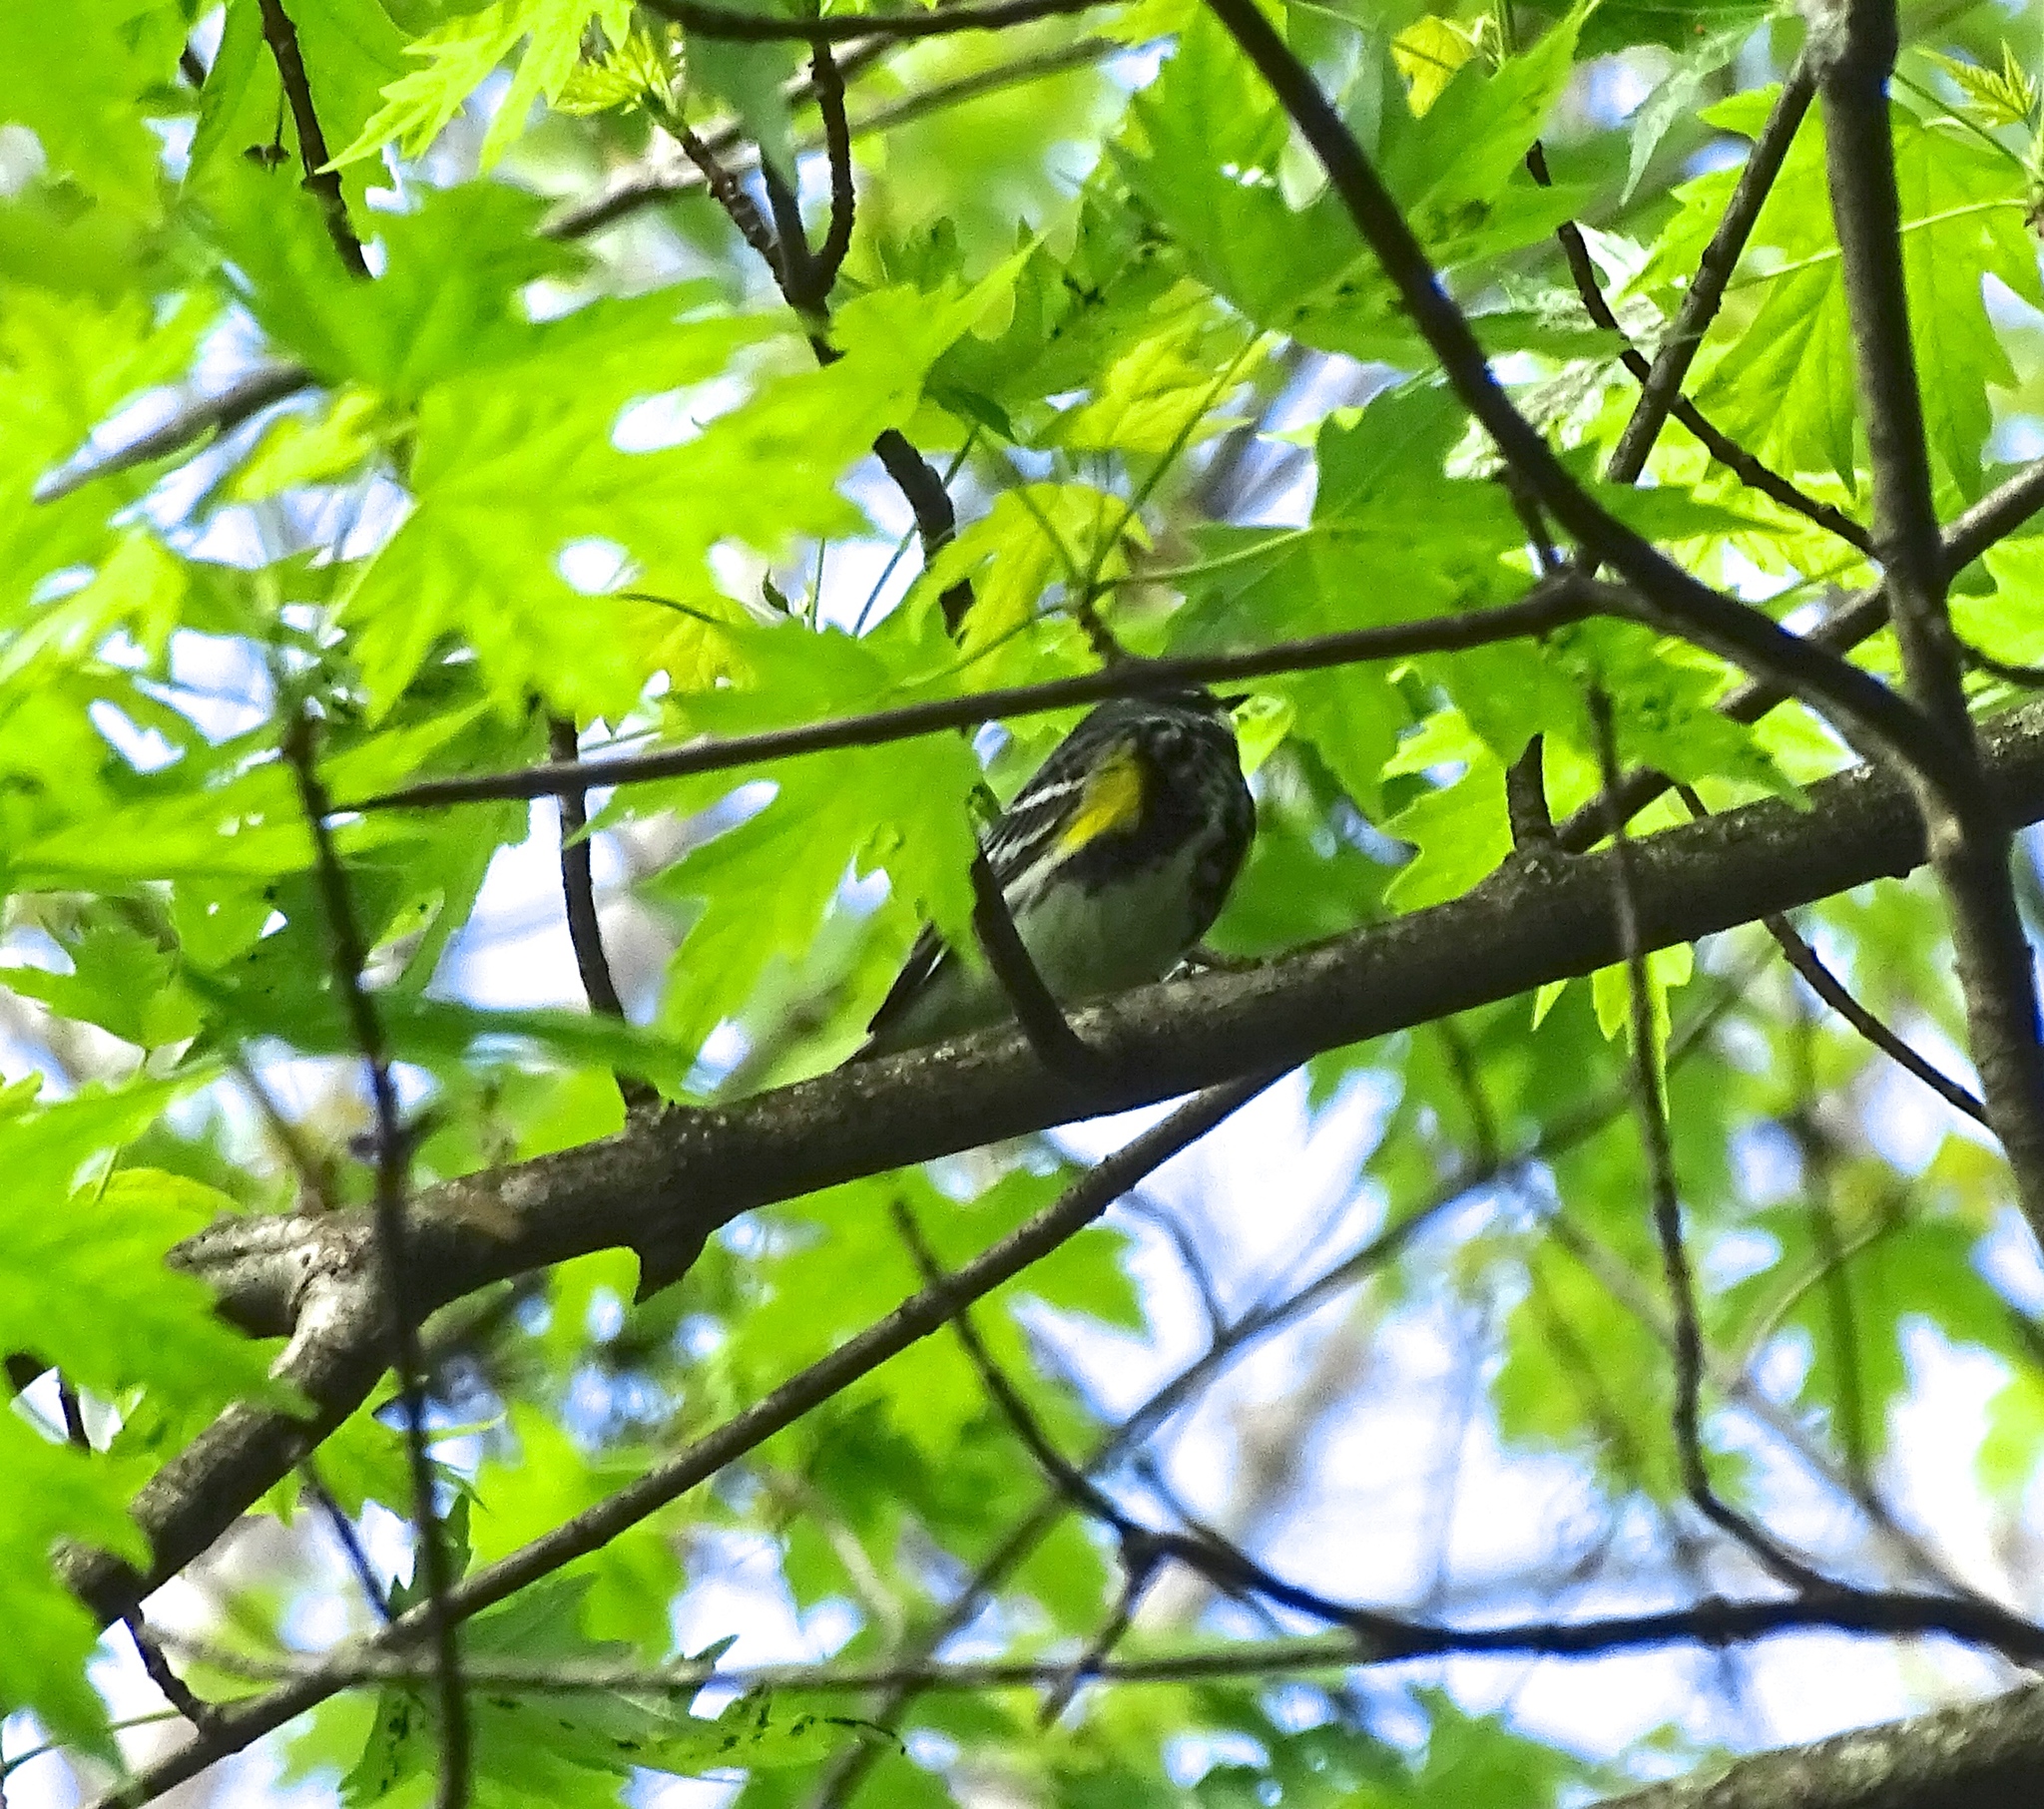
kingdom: Animalia
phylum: Chordata
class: Aves
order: Passeriformes
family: Parulidae
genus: Setophaga
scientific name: Setophaga coronata
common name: Myrtle warbler
